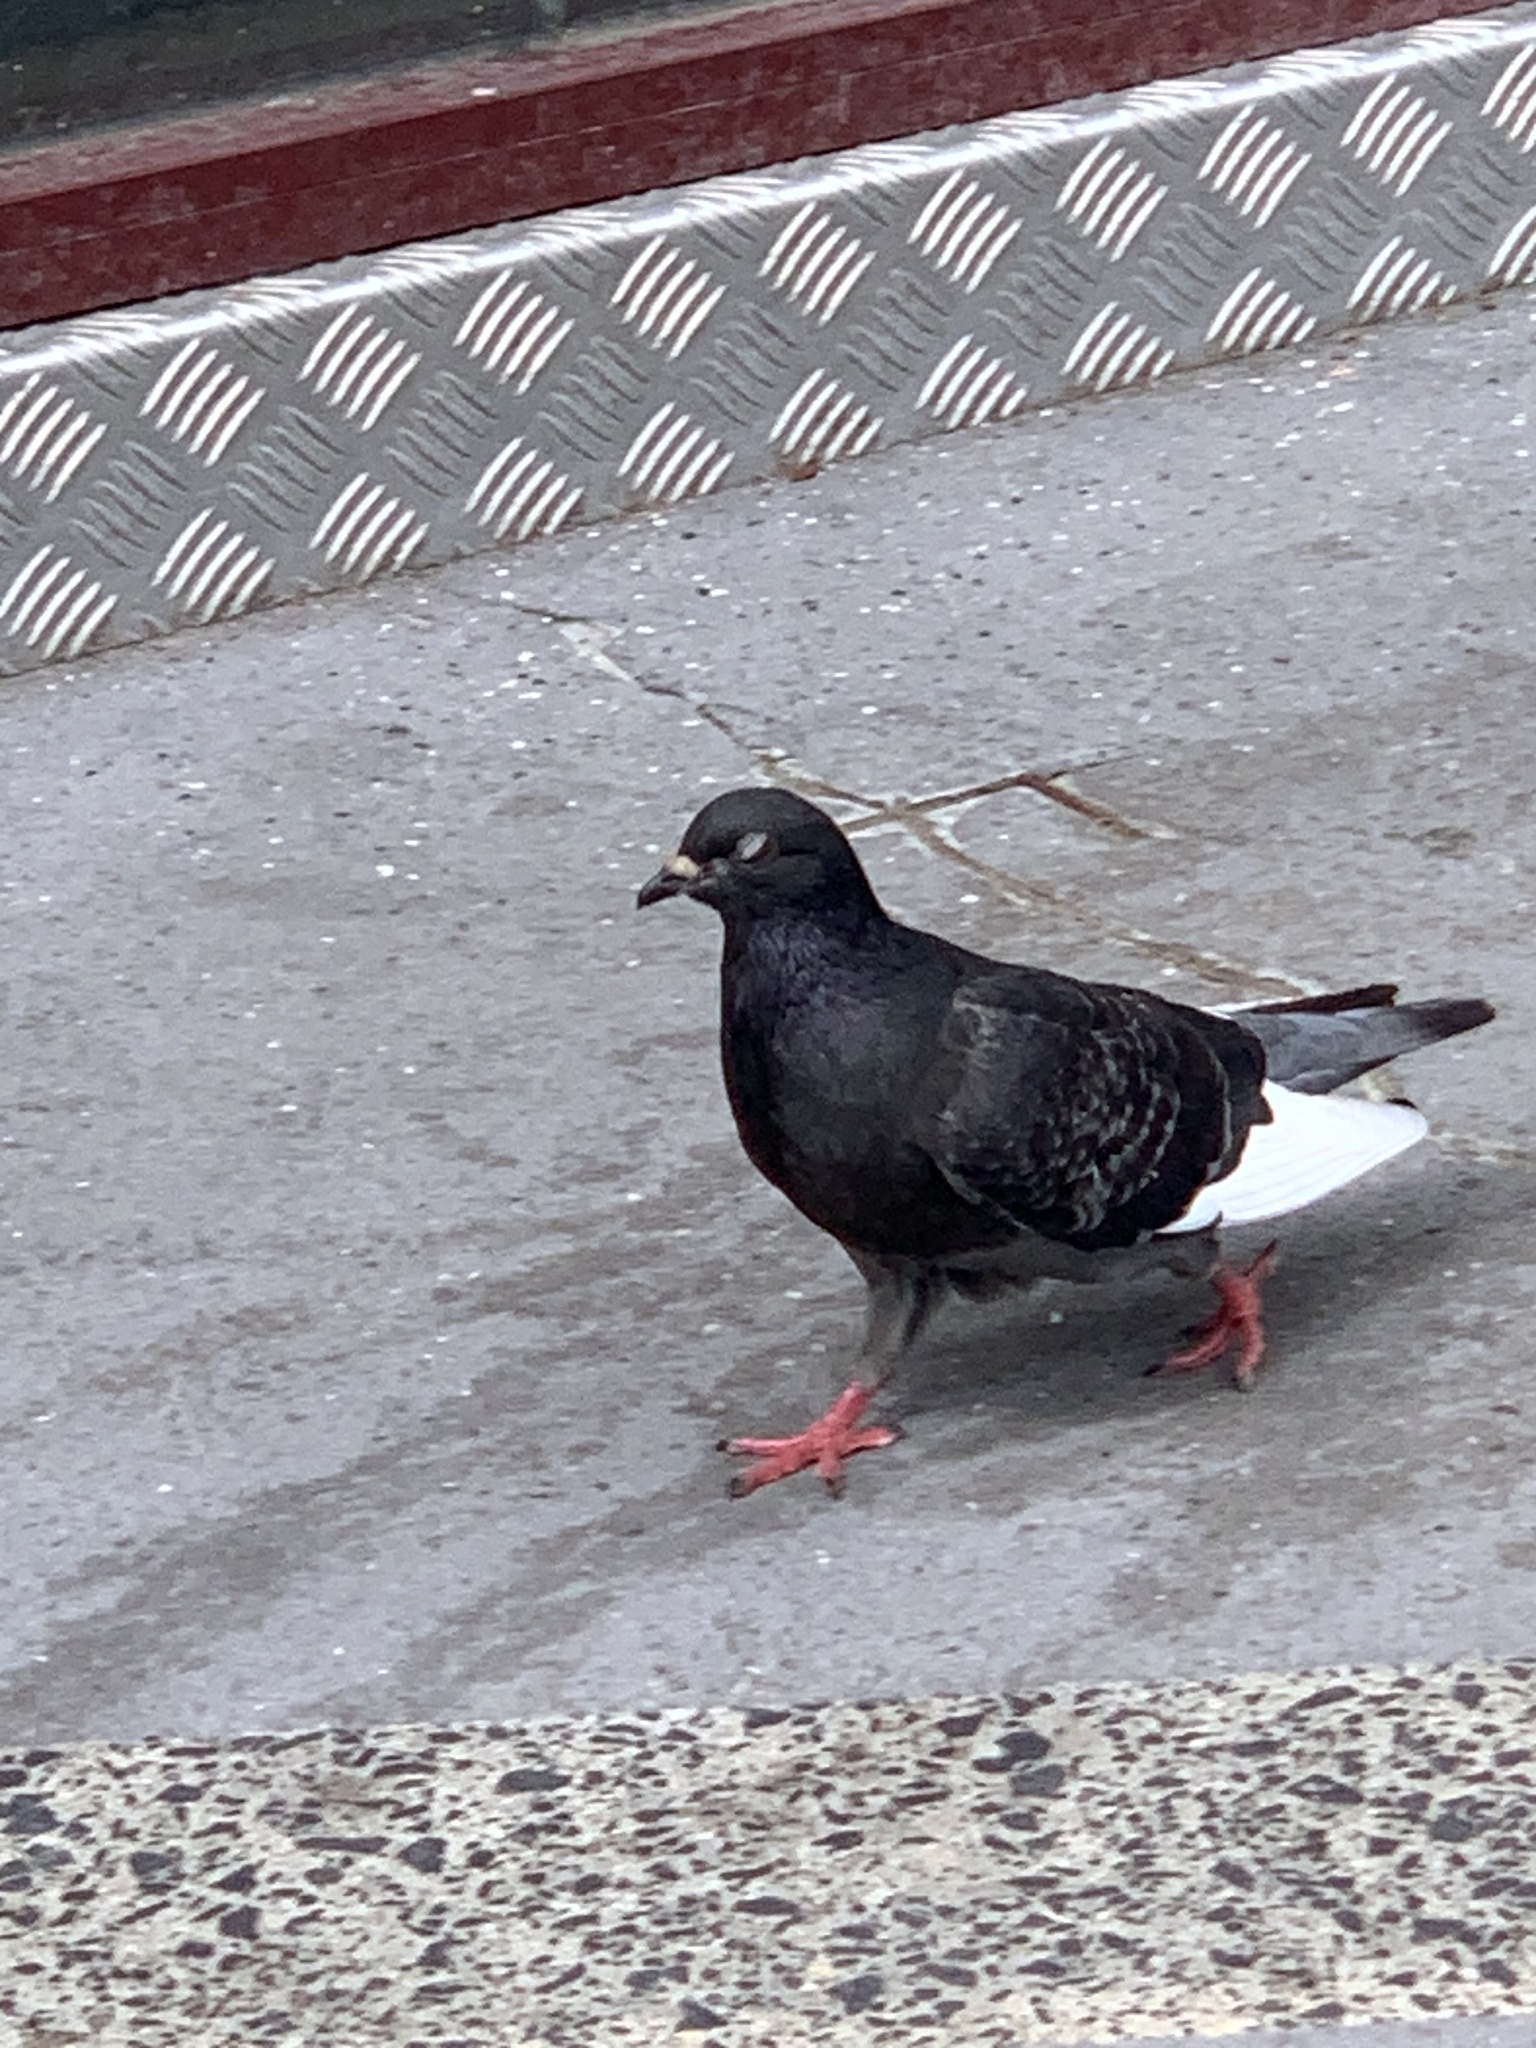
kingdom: Animalia
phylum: Chordata
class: Aves
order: Columbiformes
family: Columbidae
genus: Columba
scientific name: Columba livia
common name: Rock pigeon
